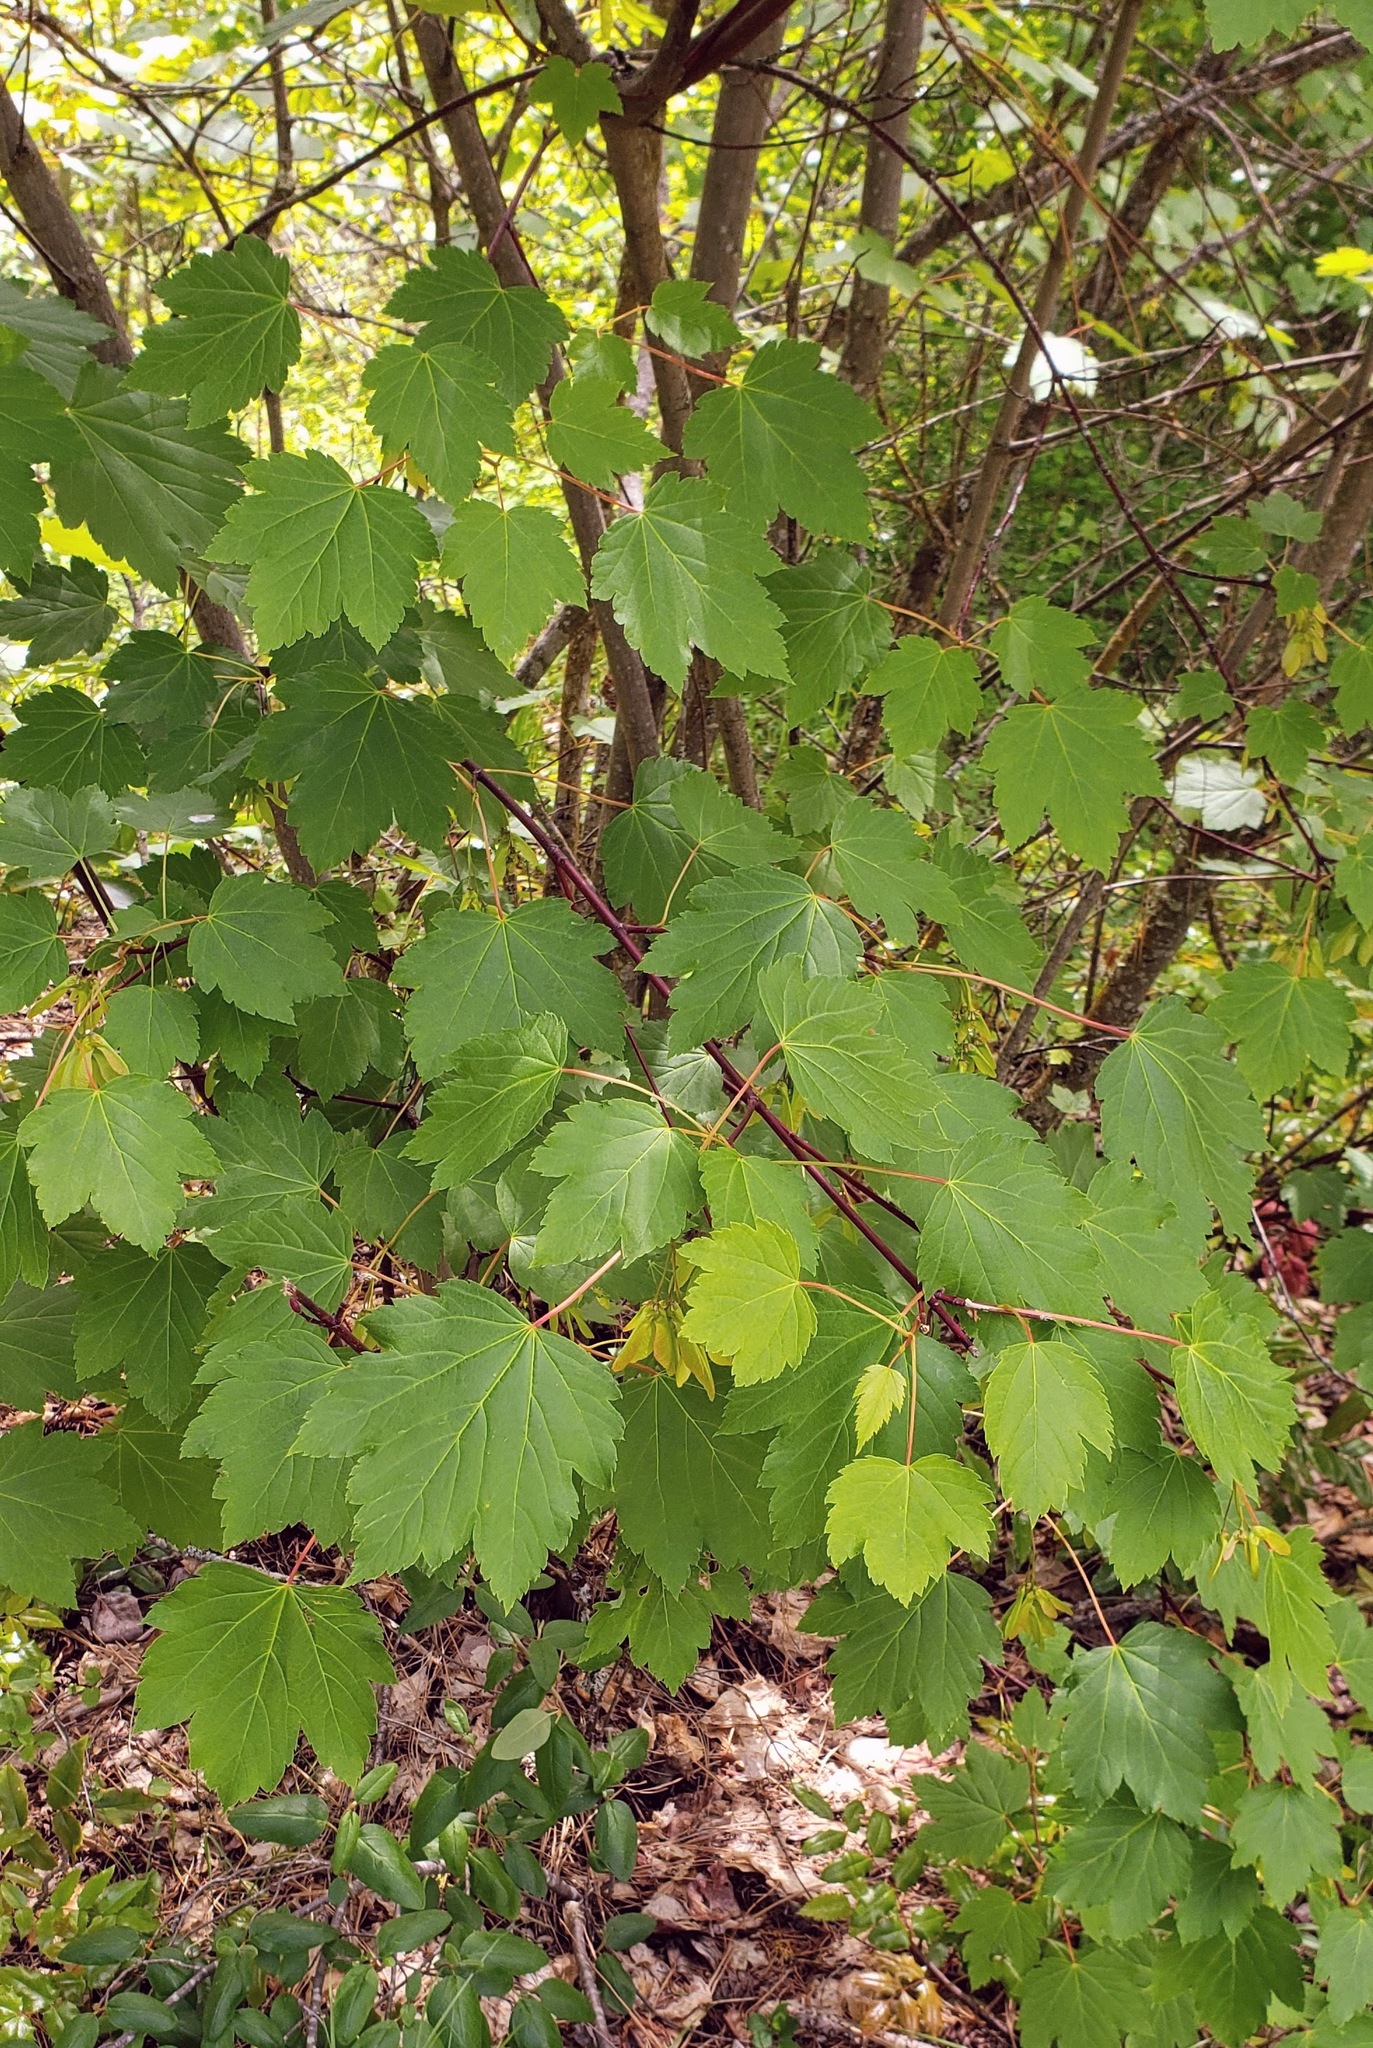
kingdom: Plantae
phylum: Tracheophyta
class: Magnoliopsida
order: Sapindales
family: Sapindaceae
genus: Acer
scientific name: Acer glabrum
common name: Rocky mountain maple
